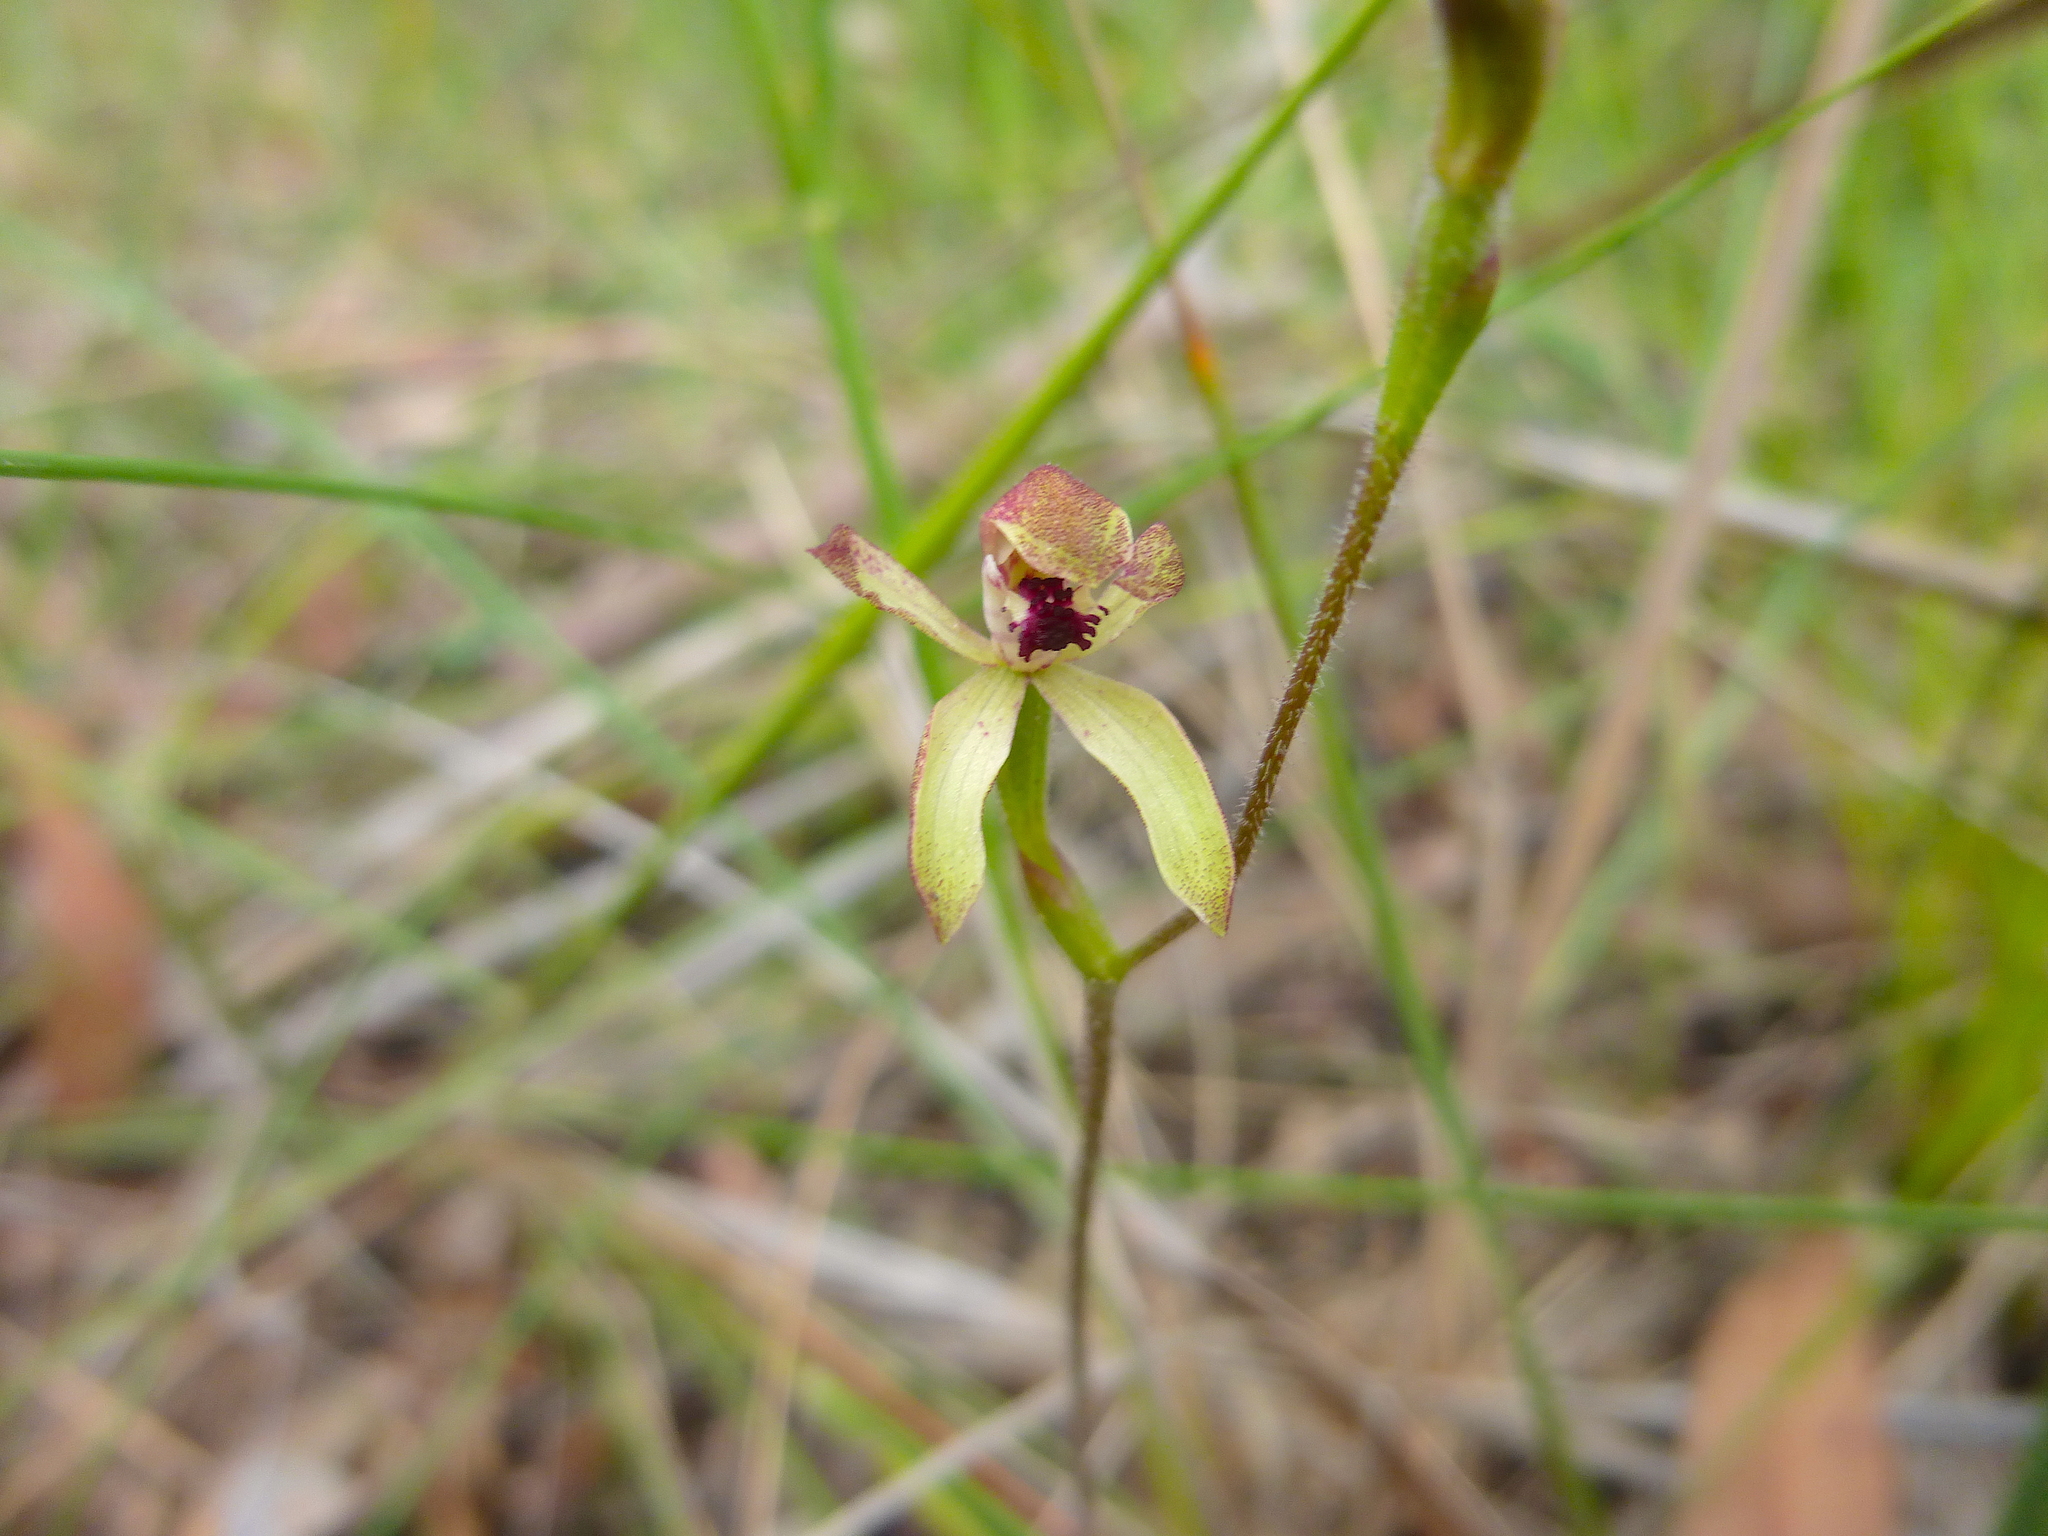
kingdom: Plantae
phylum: Tracheophyta
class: Liliopsida
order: Asparagales
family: Orchidaceae
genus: Caladenia
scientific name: Caladenia transitoria
